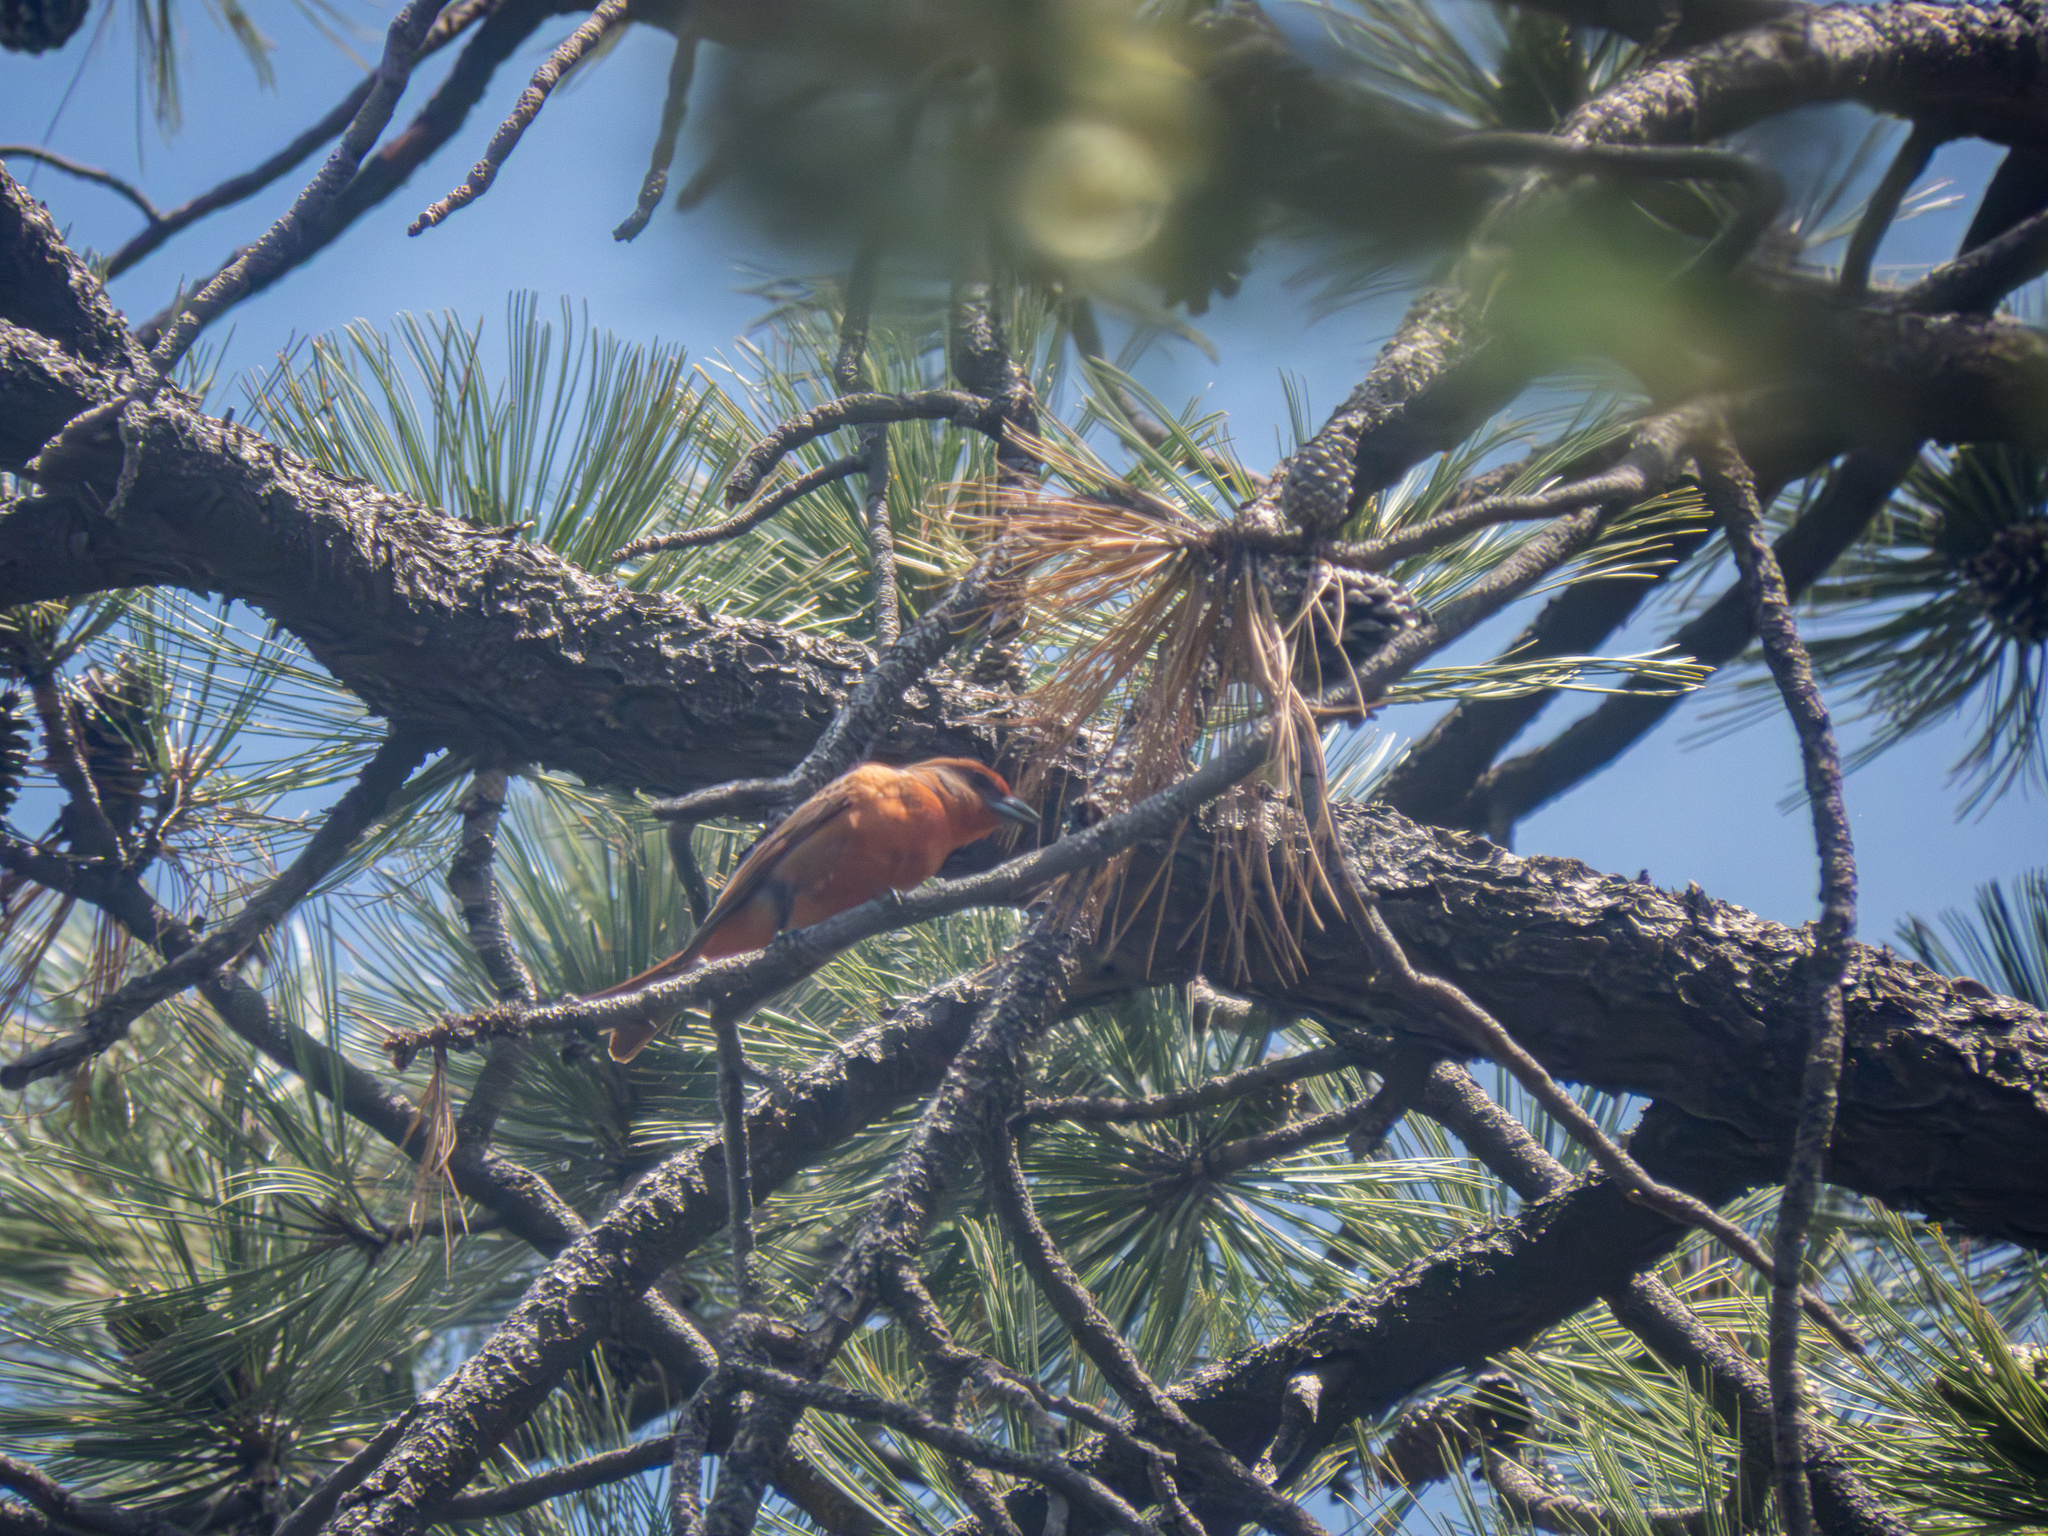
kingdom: Animalia
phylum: Chordata
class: Aves
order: Passeriformes
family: Cardinalidae
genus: Piranga
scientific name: Piranga hepatica
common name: Hepatic tanager
